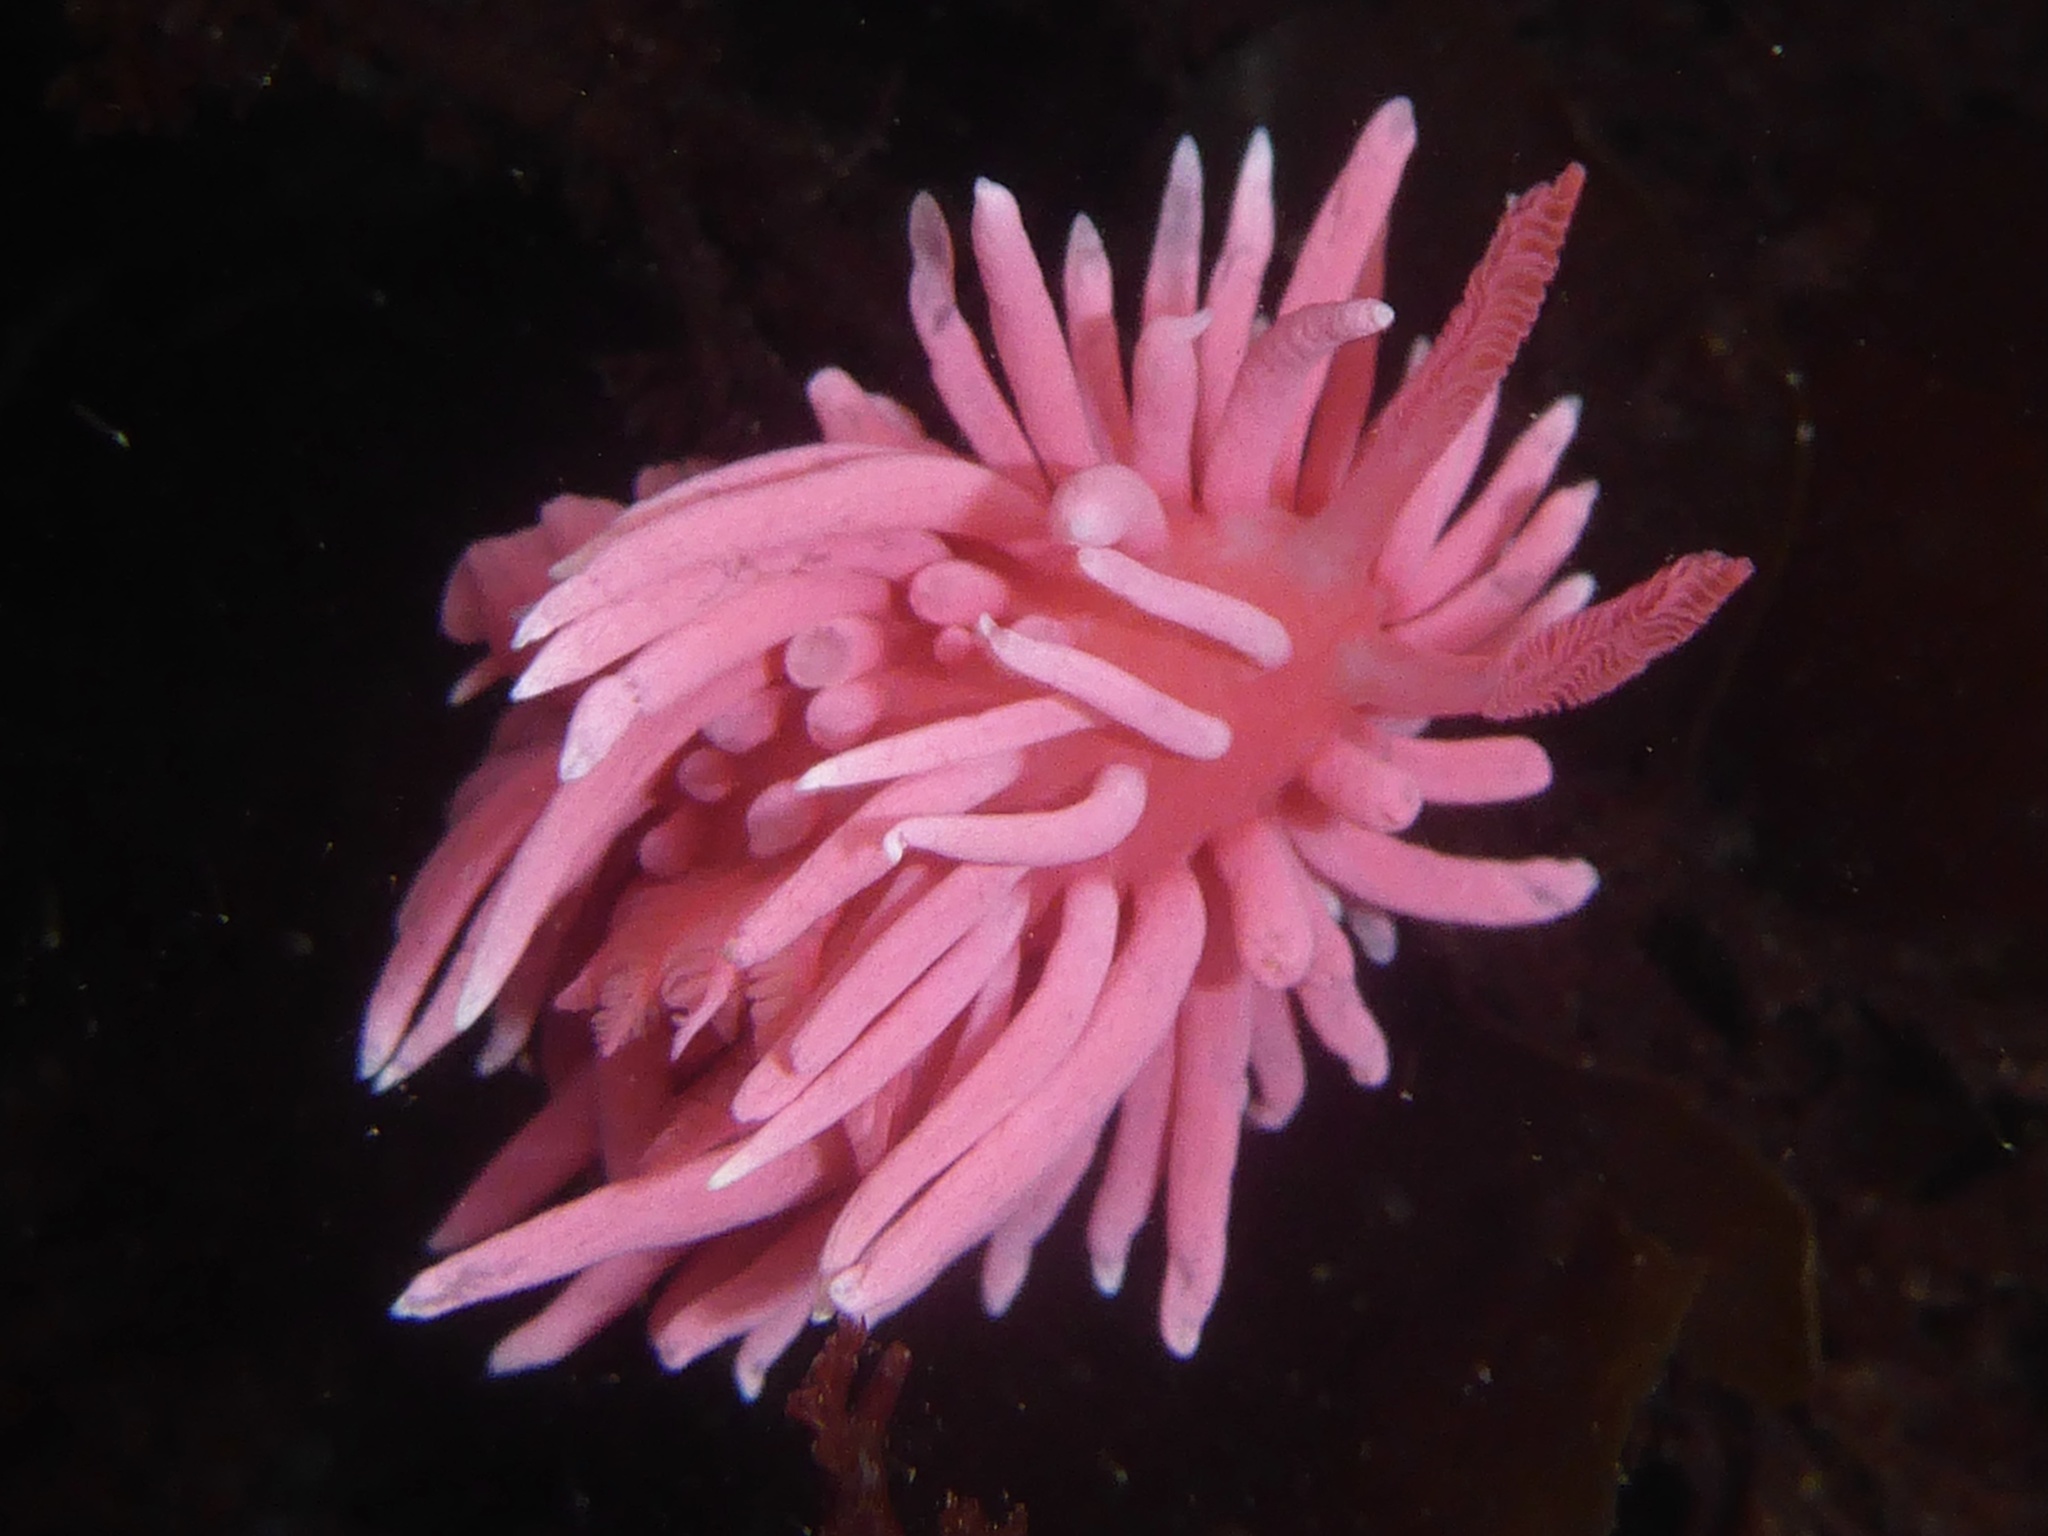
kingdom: Animalia
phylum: Mollusca
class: Gastropoda
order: Nudibranchia
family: Goniodorididae
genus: Okenia
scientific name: Okenia
